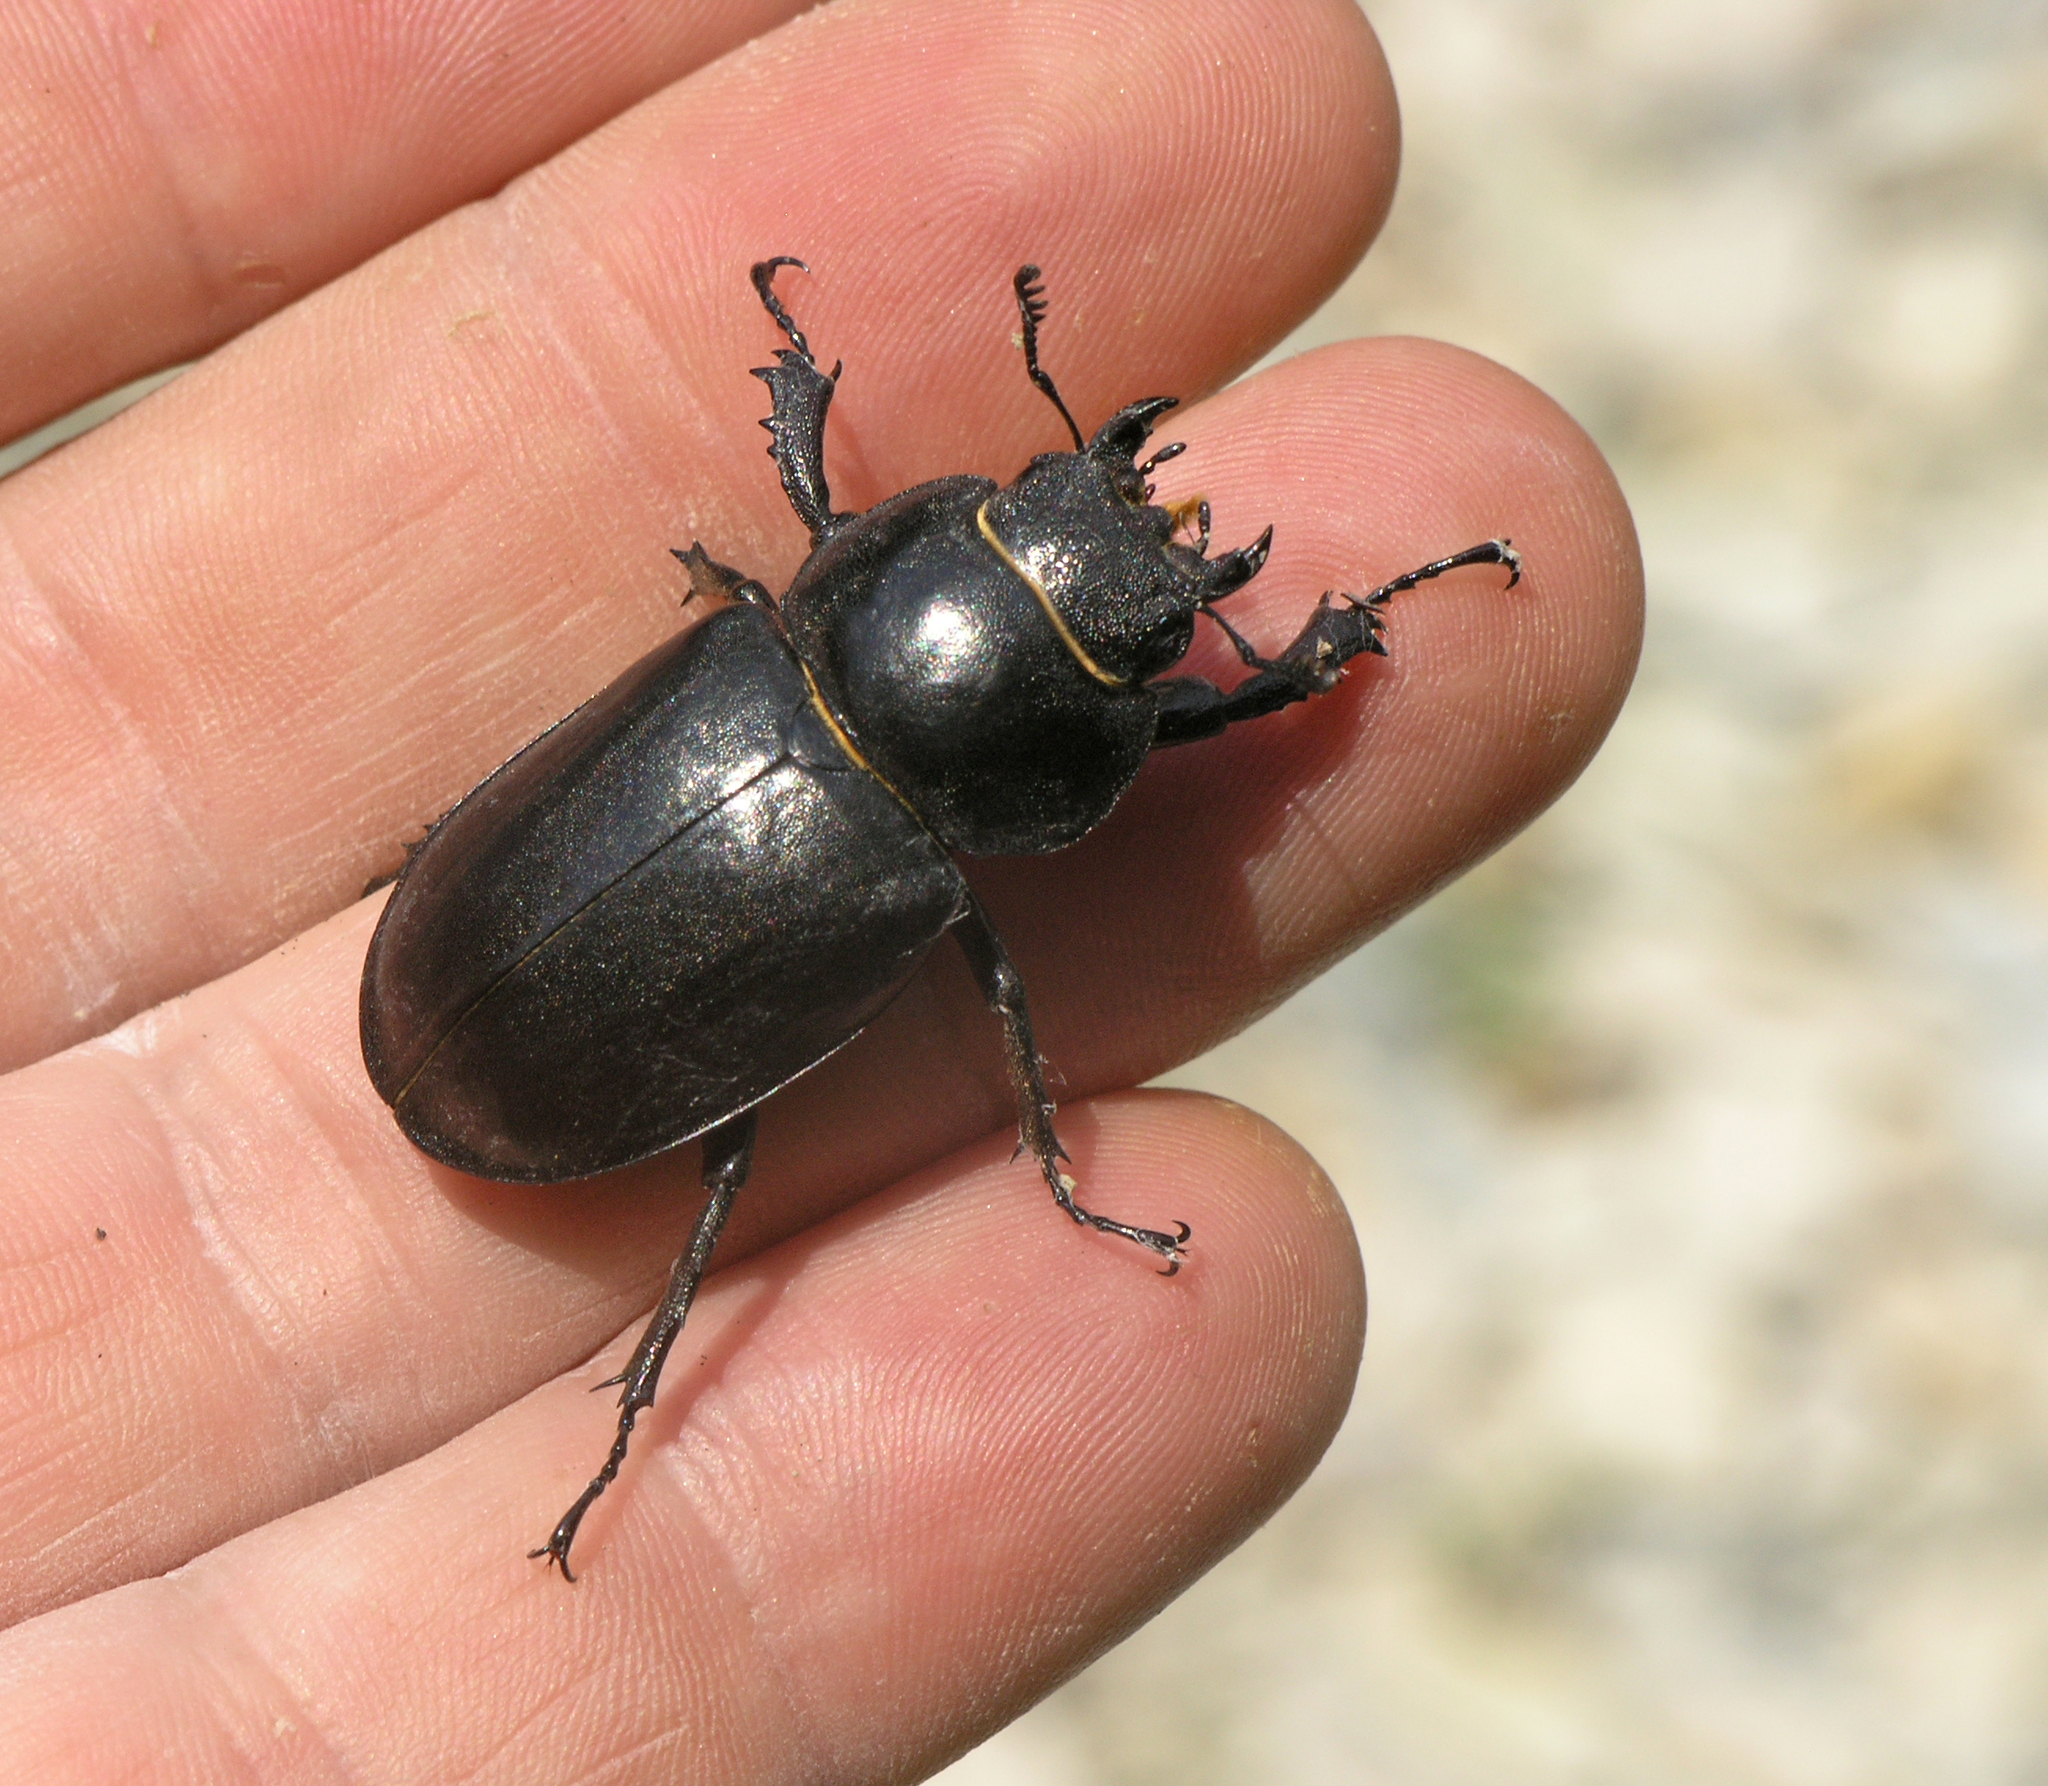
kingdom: Animalia
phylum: Arthropoda
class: Insecta
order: Coleoptera
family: Lucanidae
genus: Lucanus
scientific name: Lucanus cervus
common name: Stag beetle
